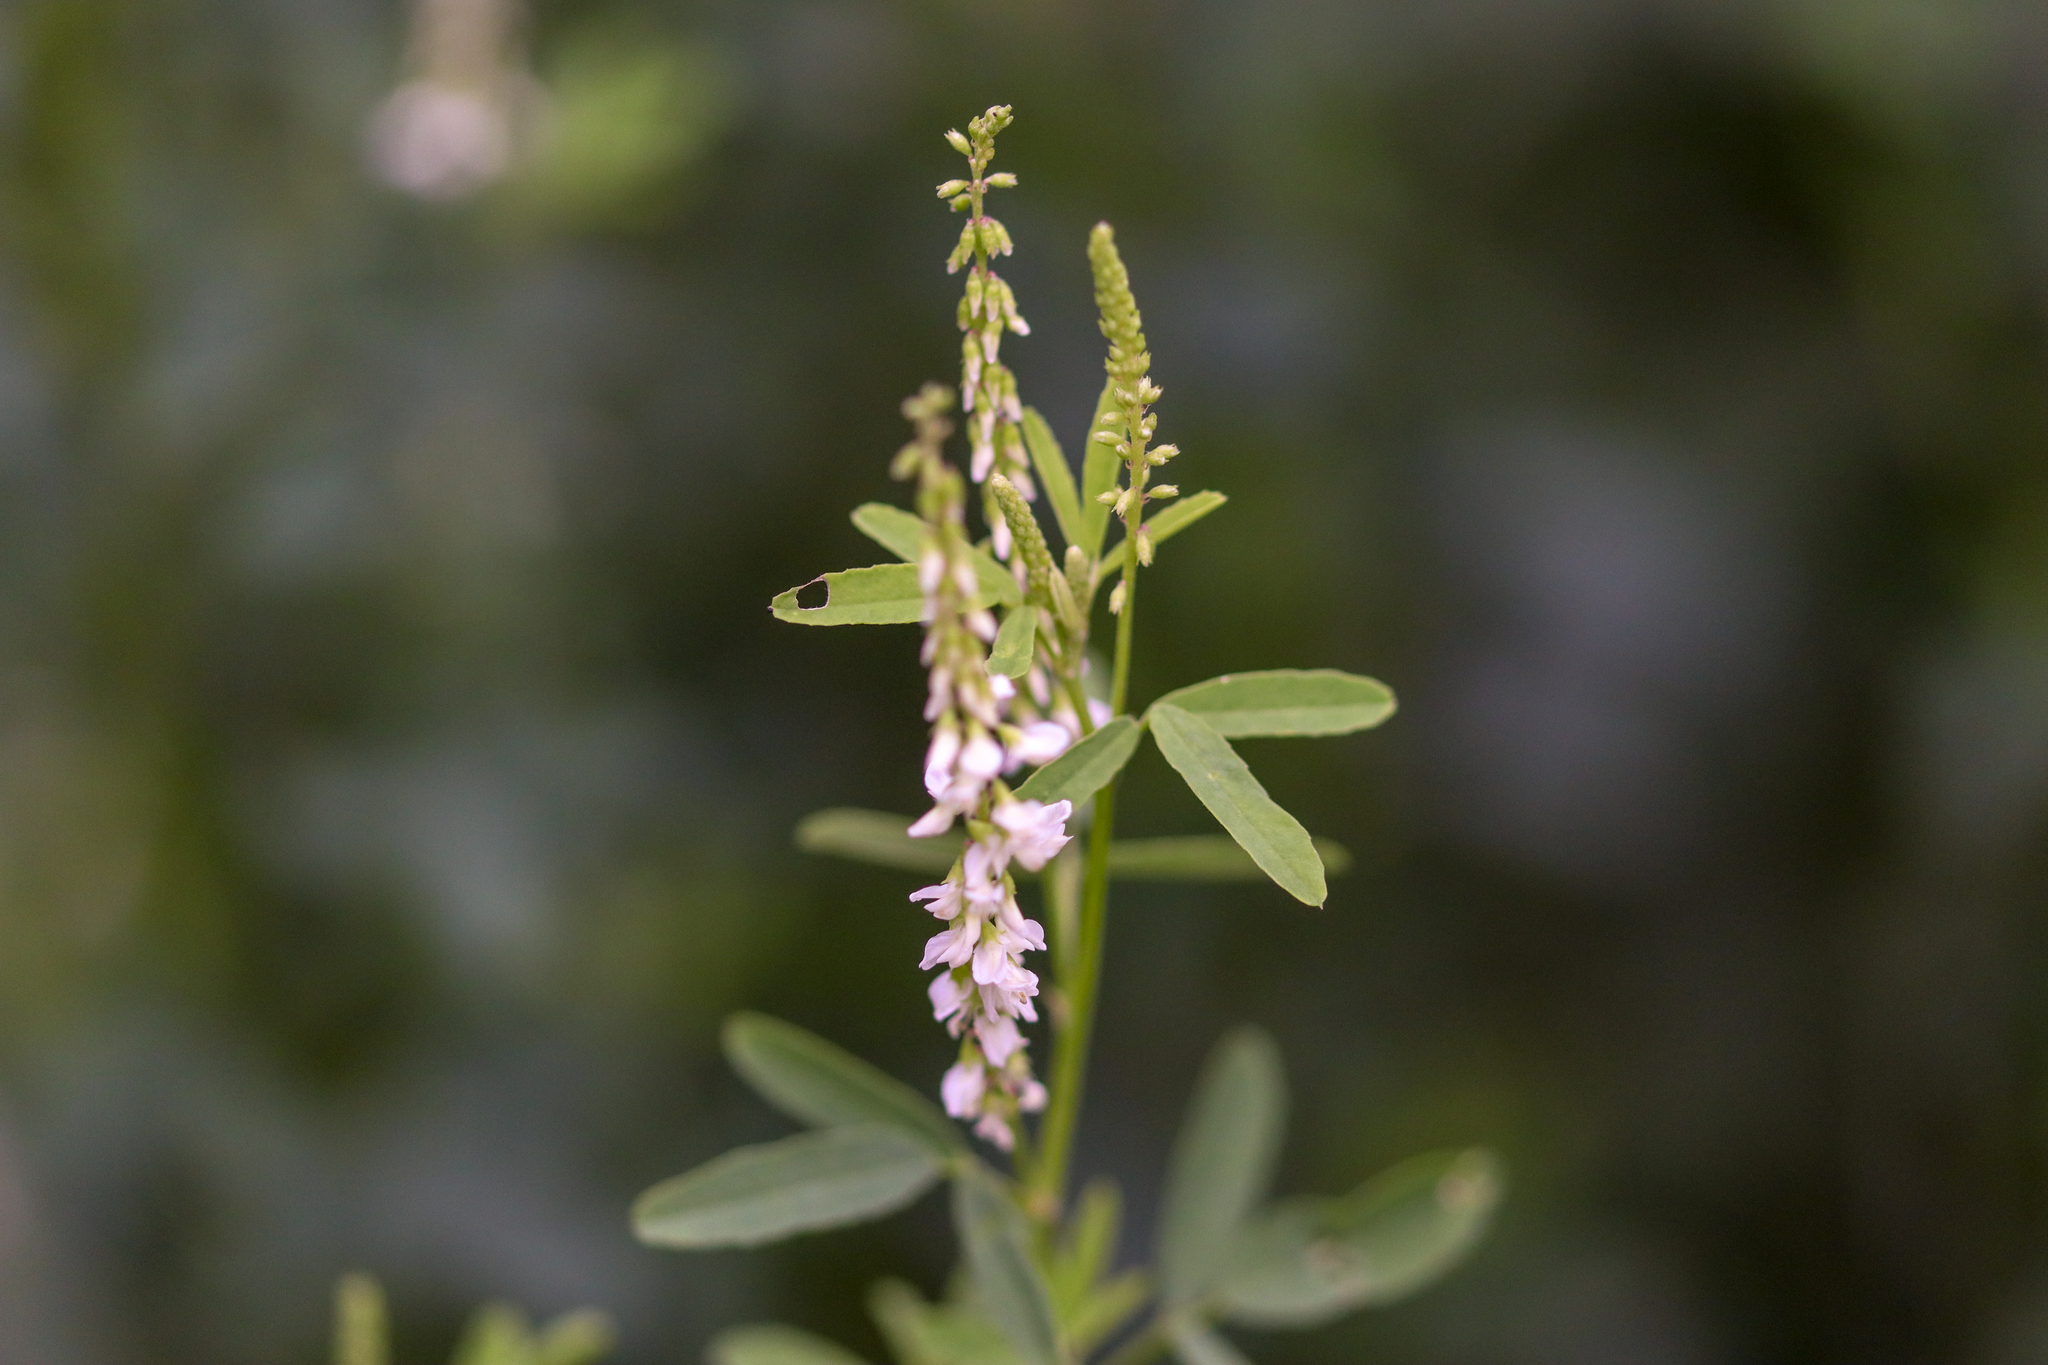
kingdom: Plantae
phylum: Tracheophyta
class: Magnoliopsida
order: Fabales
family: Fabaceae
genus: Melilotus
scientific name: Melilotus albus
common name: White melilot
